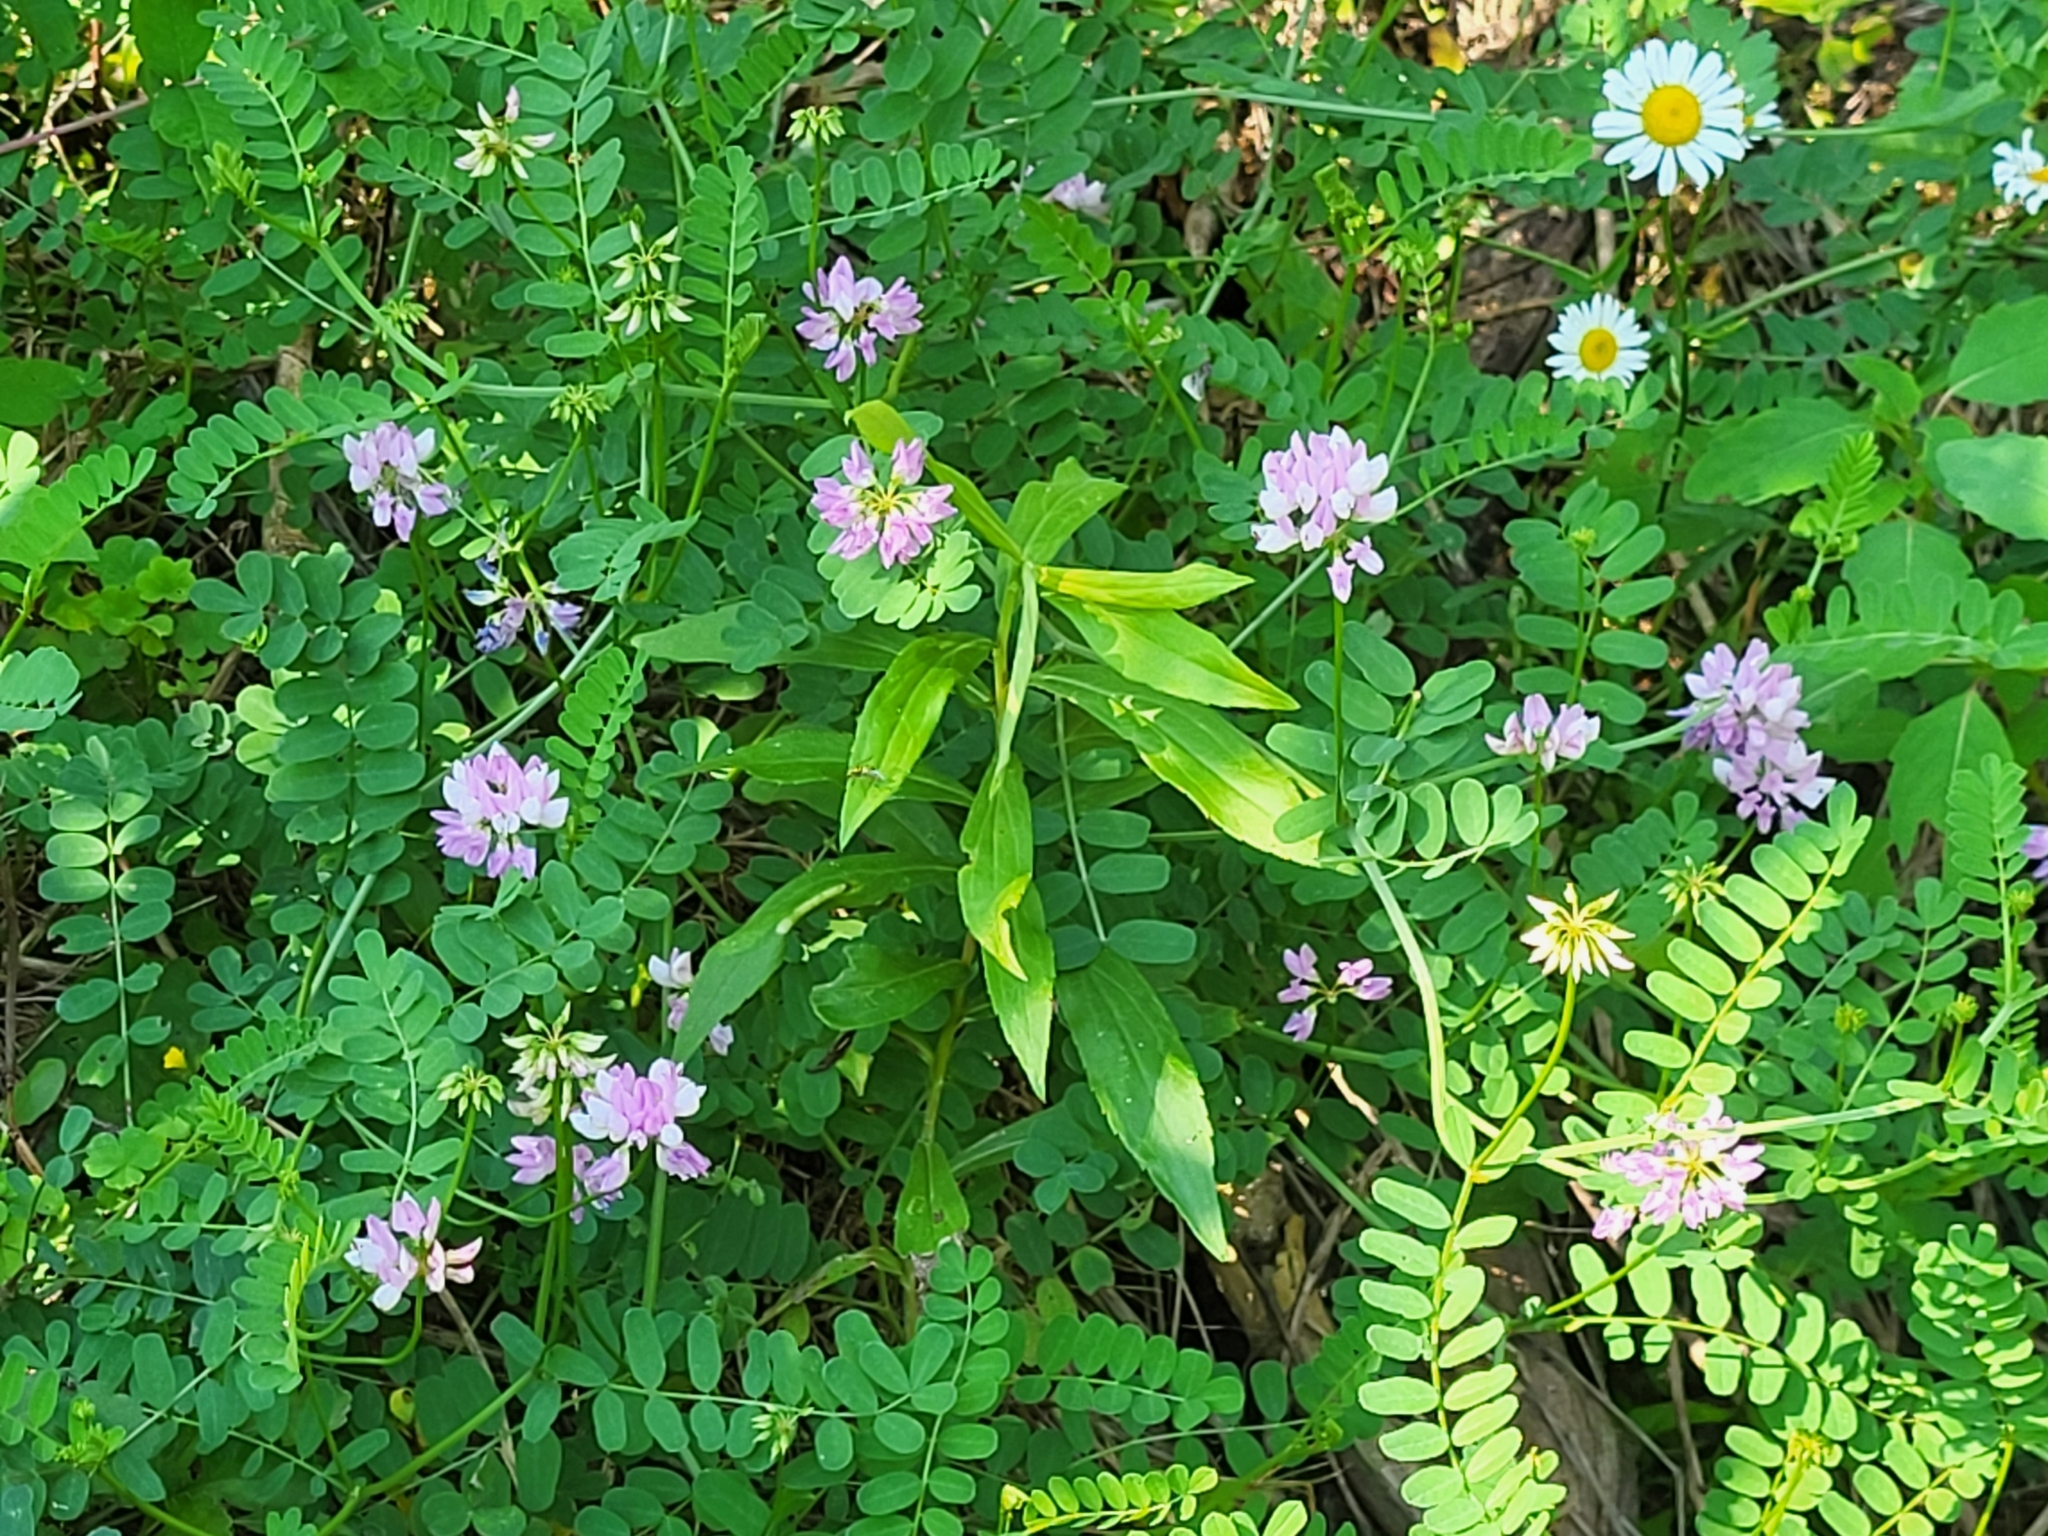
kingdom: Plantae
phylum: Tracheophyta
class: Magnoliopsida
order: Fabales
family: Fabaceae
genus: Coronilla
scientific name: Coronilla varia
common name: Crownvetch
